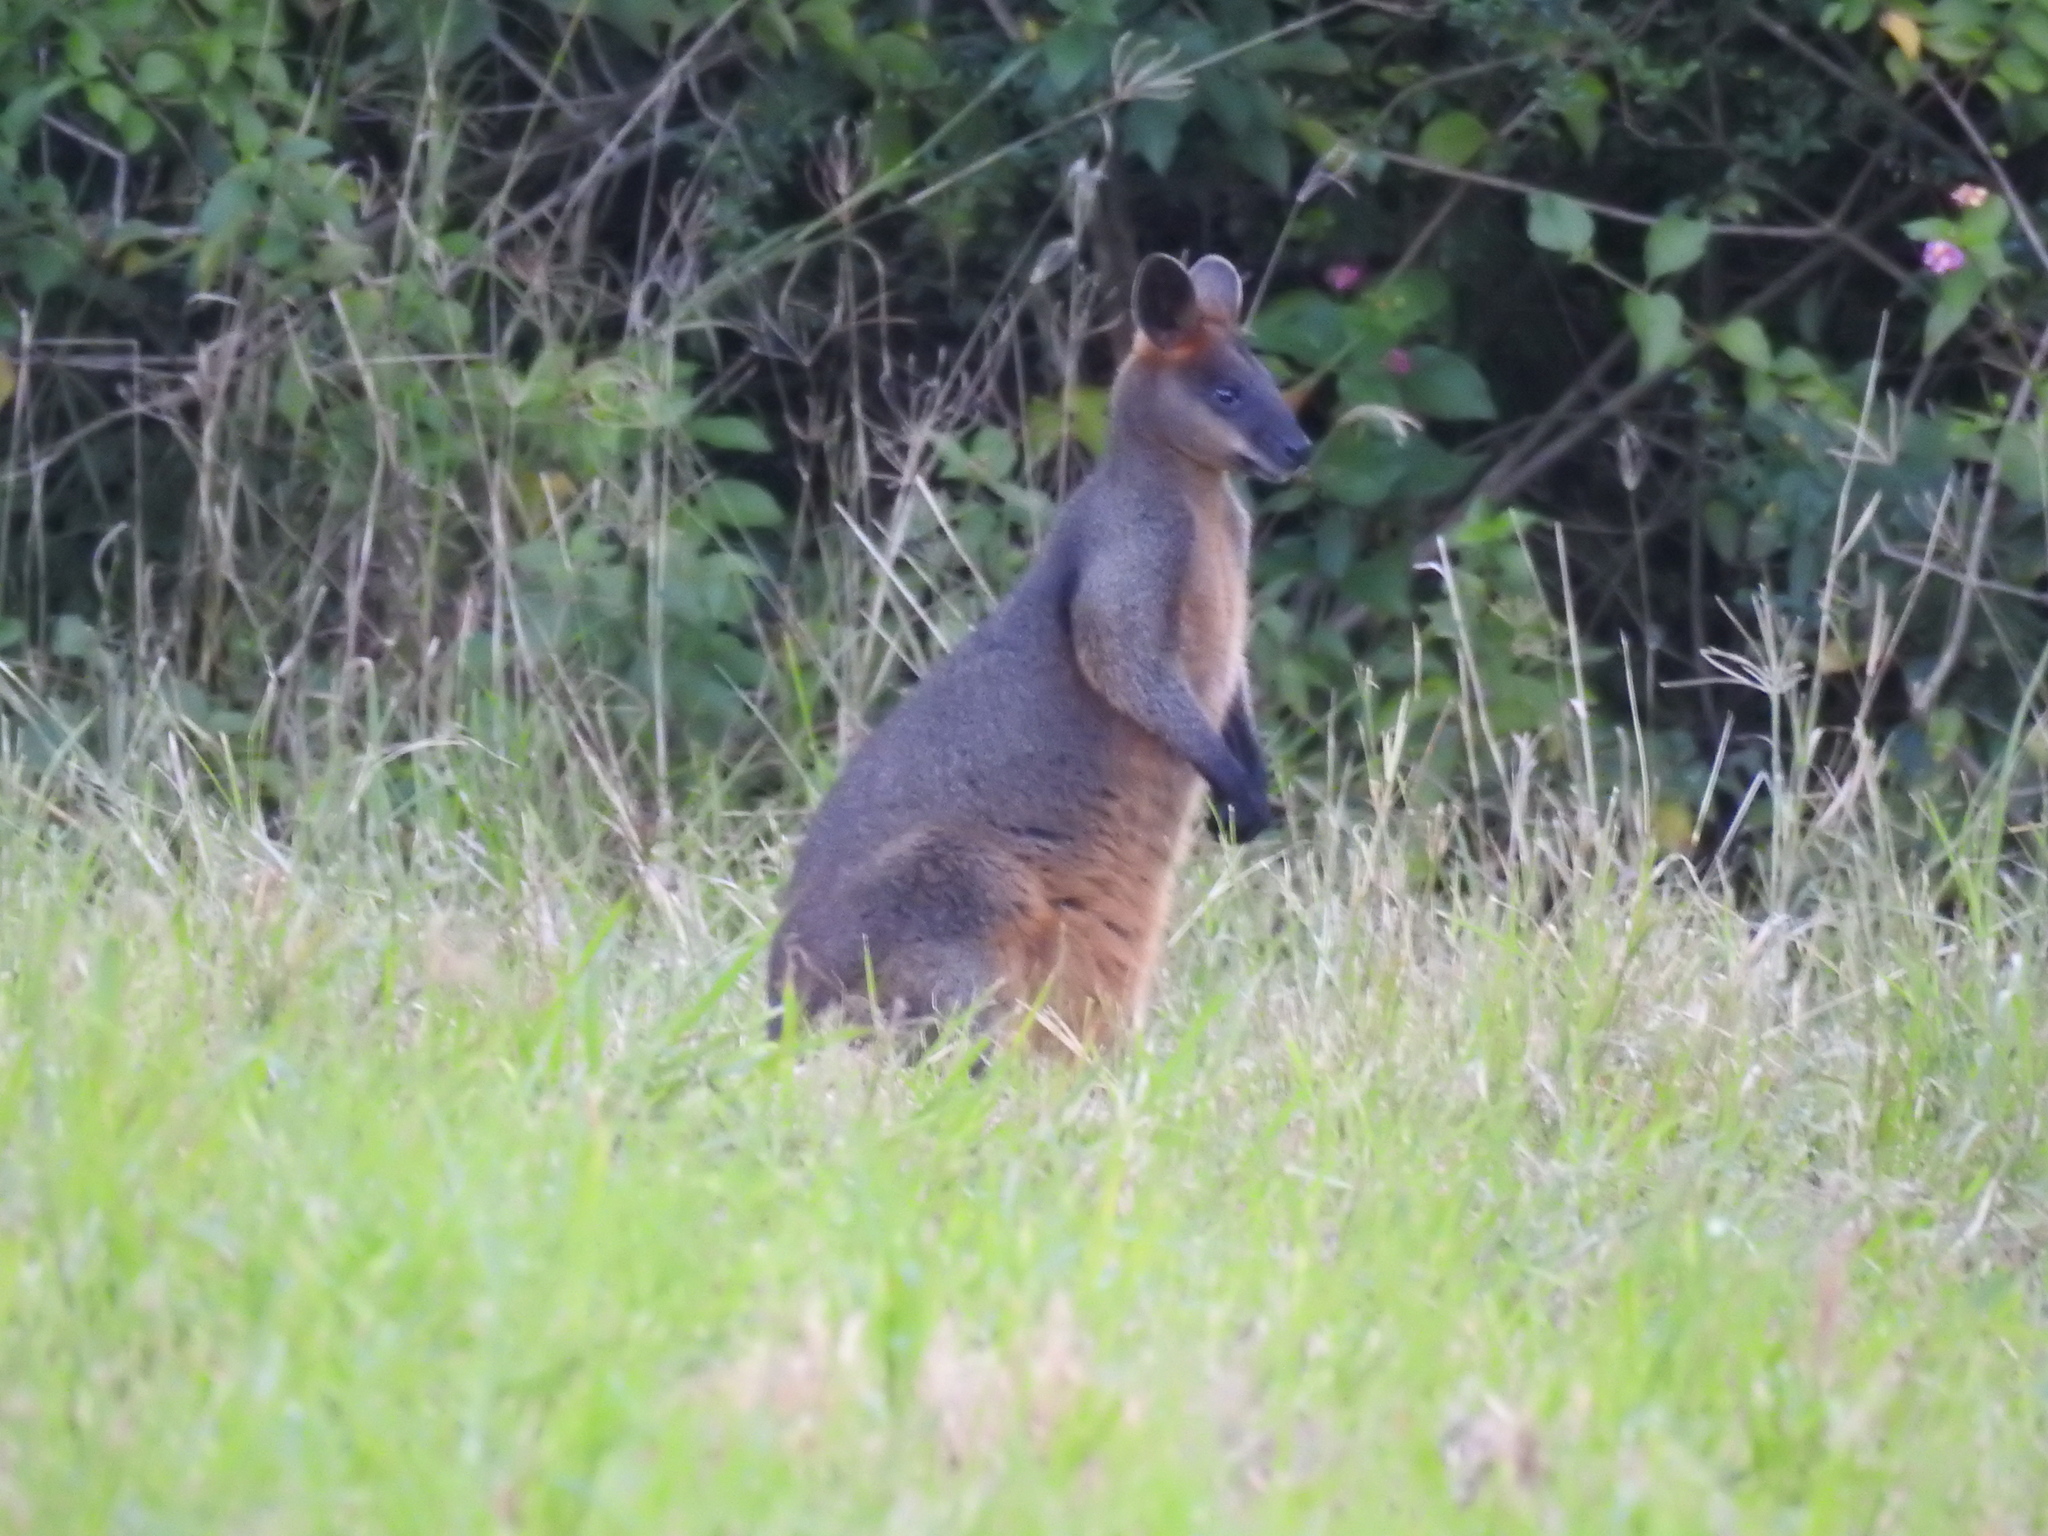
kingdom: Animalia
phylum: Chordata
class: Mammalia
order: Diprotodontia
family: Macropodidae
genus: Wallabia
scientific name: Wallabia bicolor
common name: Swamp wallaby
